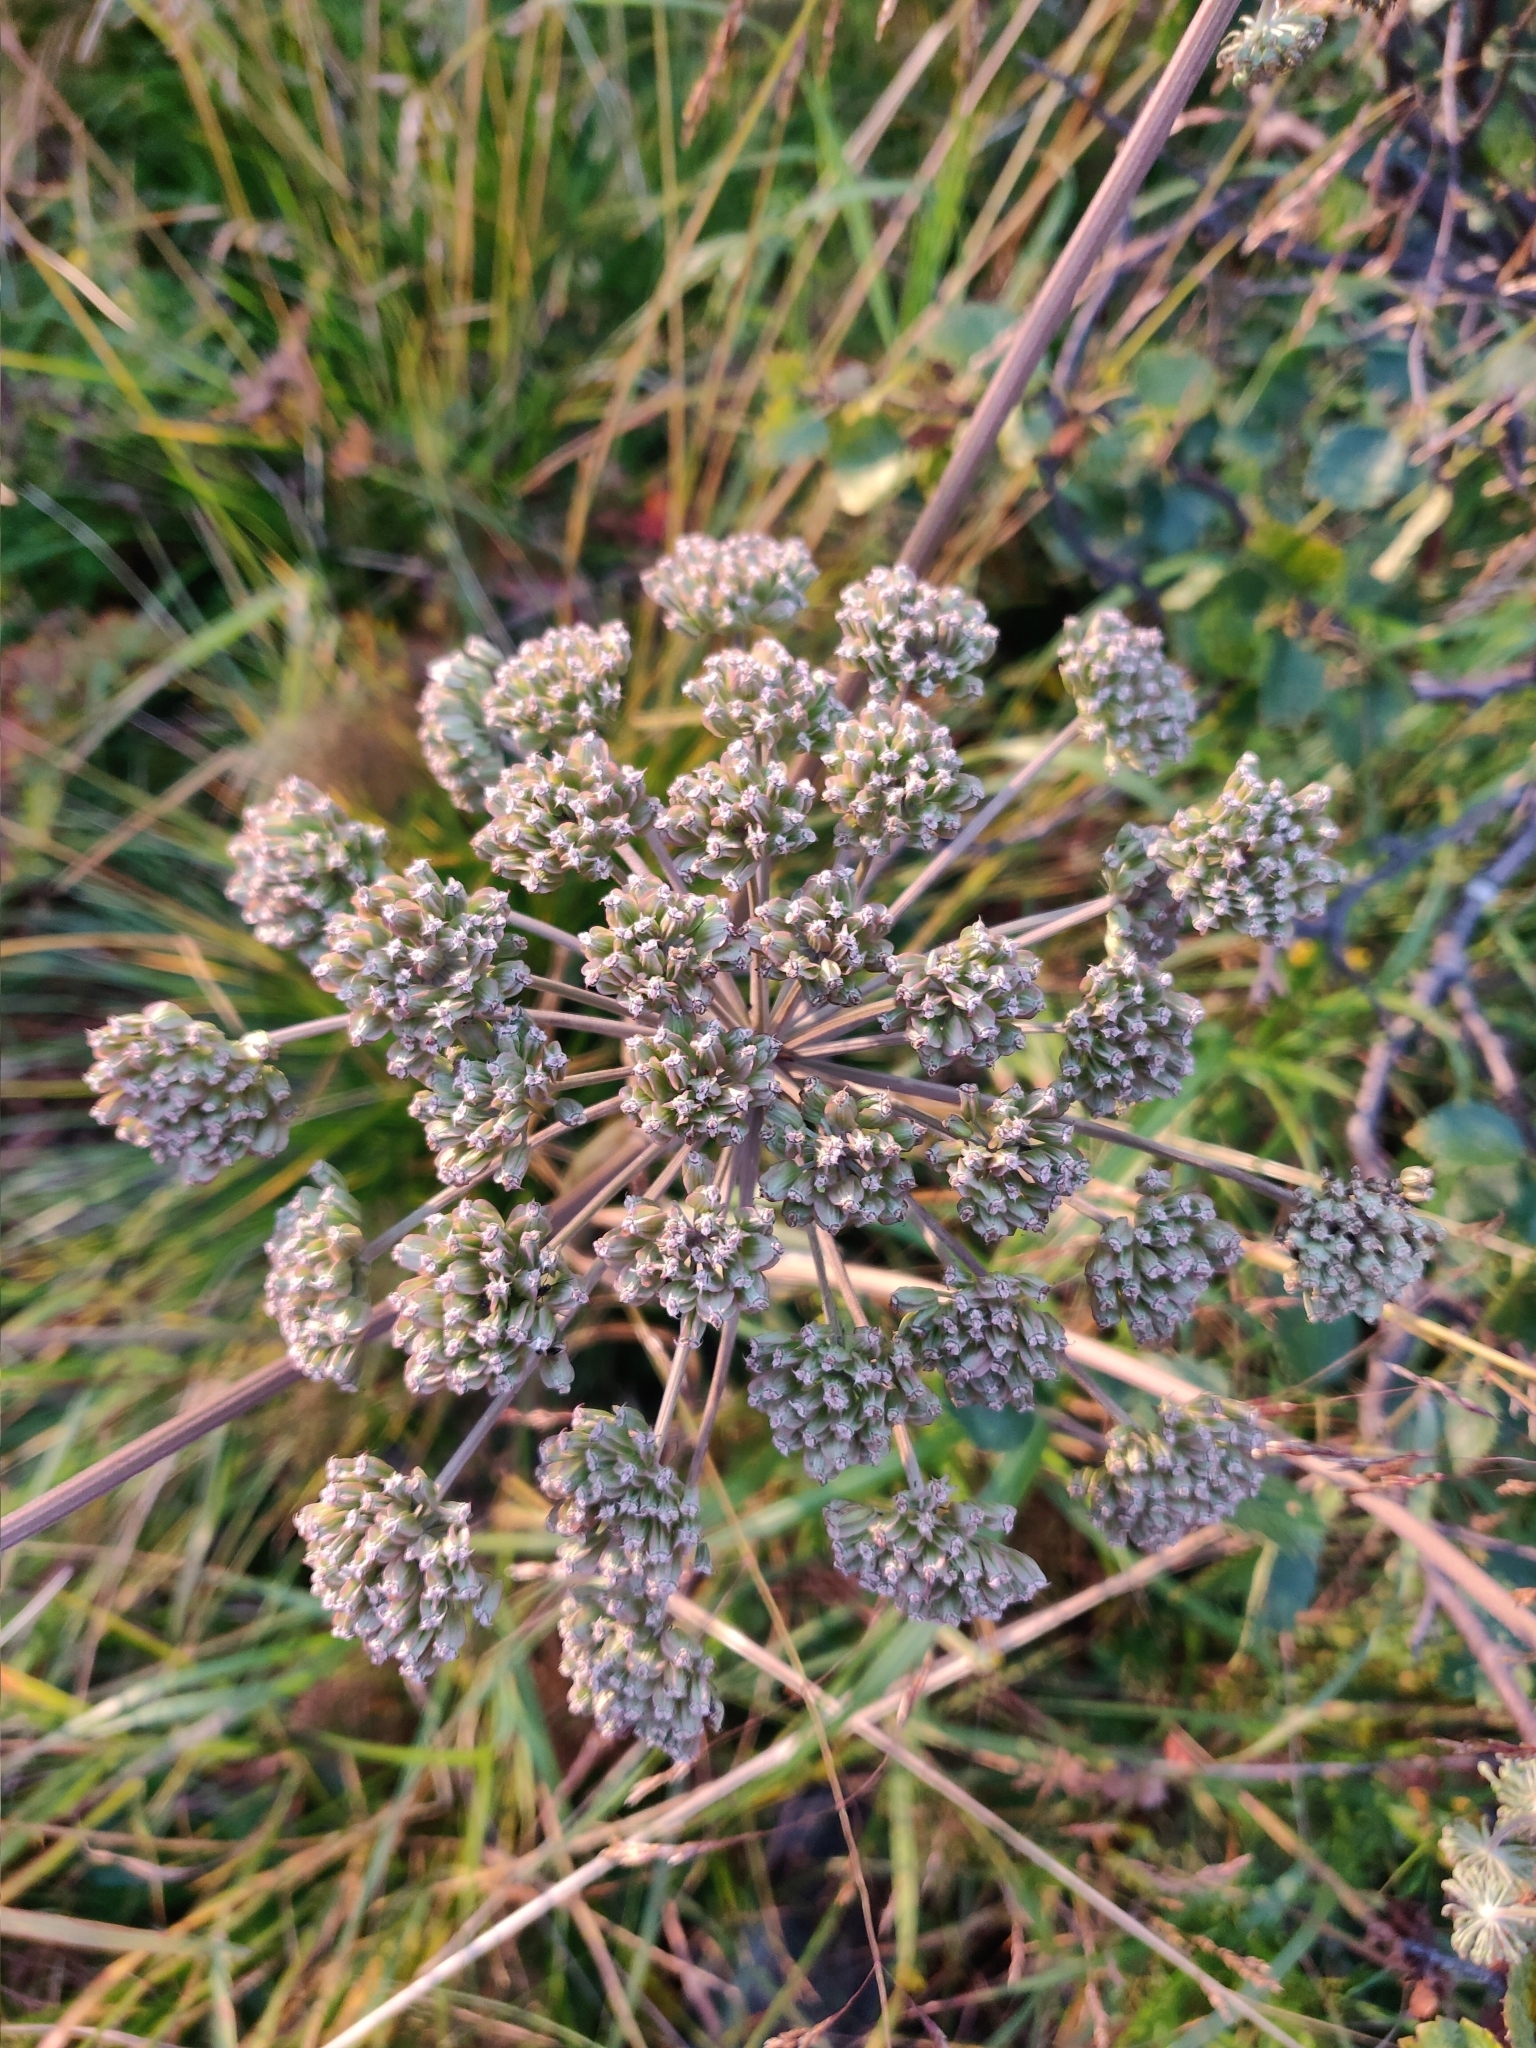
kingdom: Plantae
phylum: Tracheophyta
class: Magnoliopsida
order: Apiales
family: Apiaceae
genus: Angelica
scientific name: Angelica sylvestris
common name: Wild angelica
